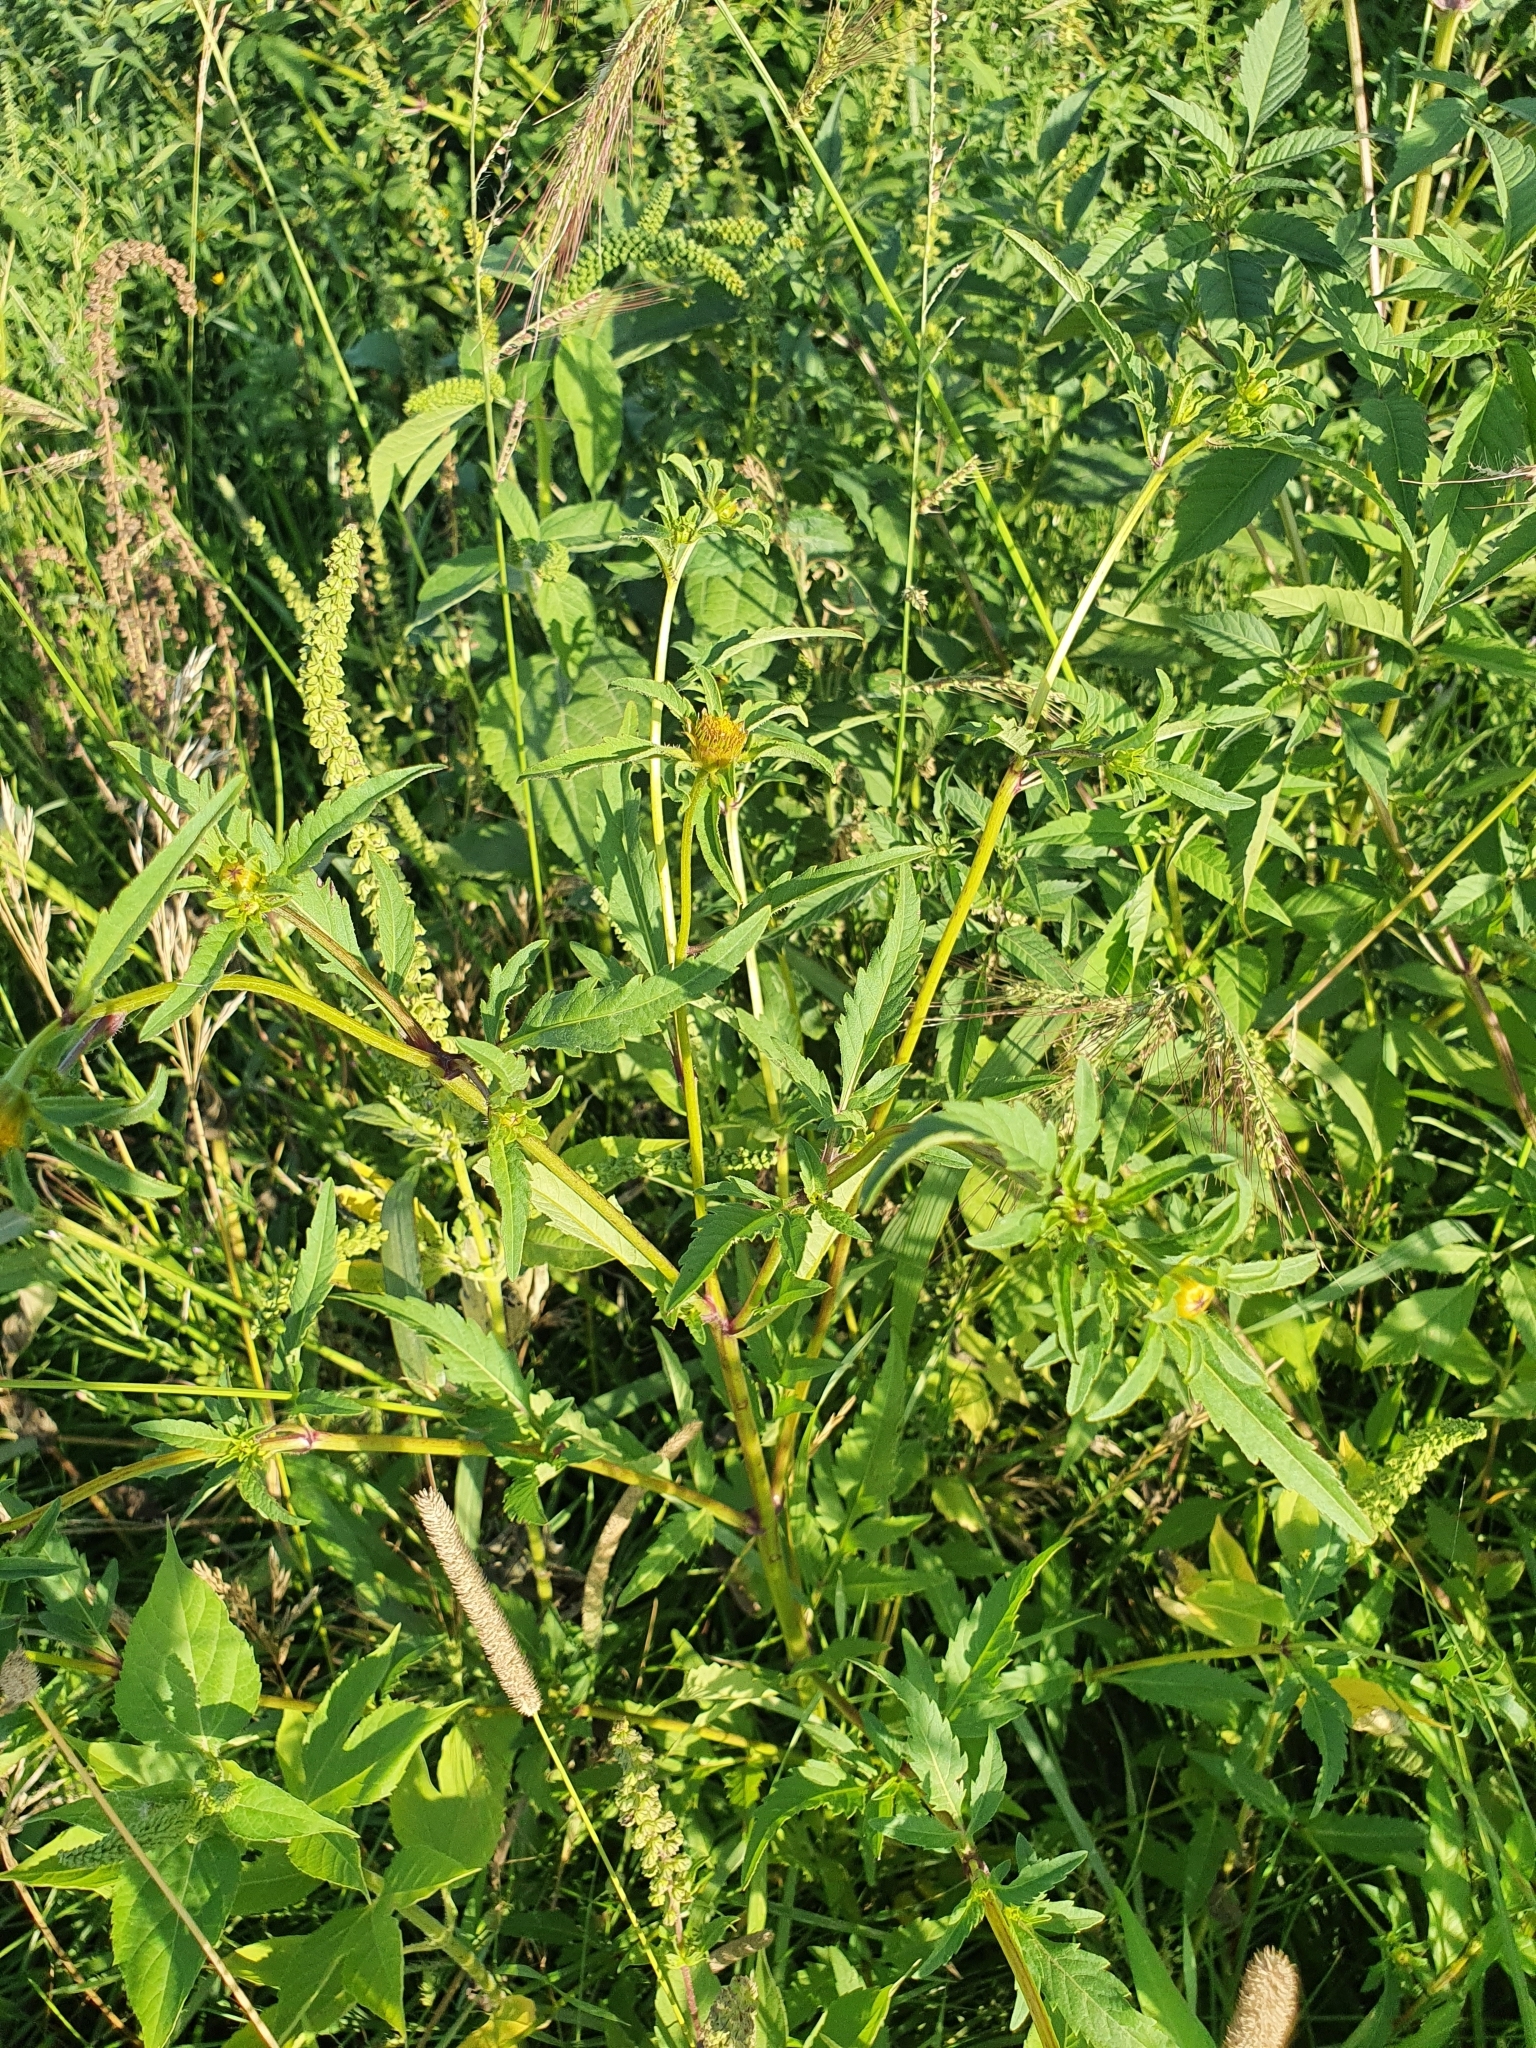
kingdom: Plantae
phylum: Tracheophyta
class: Magnoliopsida
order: Asterales
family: Asteraceae
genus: Bidens
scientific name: Bidens tripartita
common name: Trifid bur-marigold
